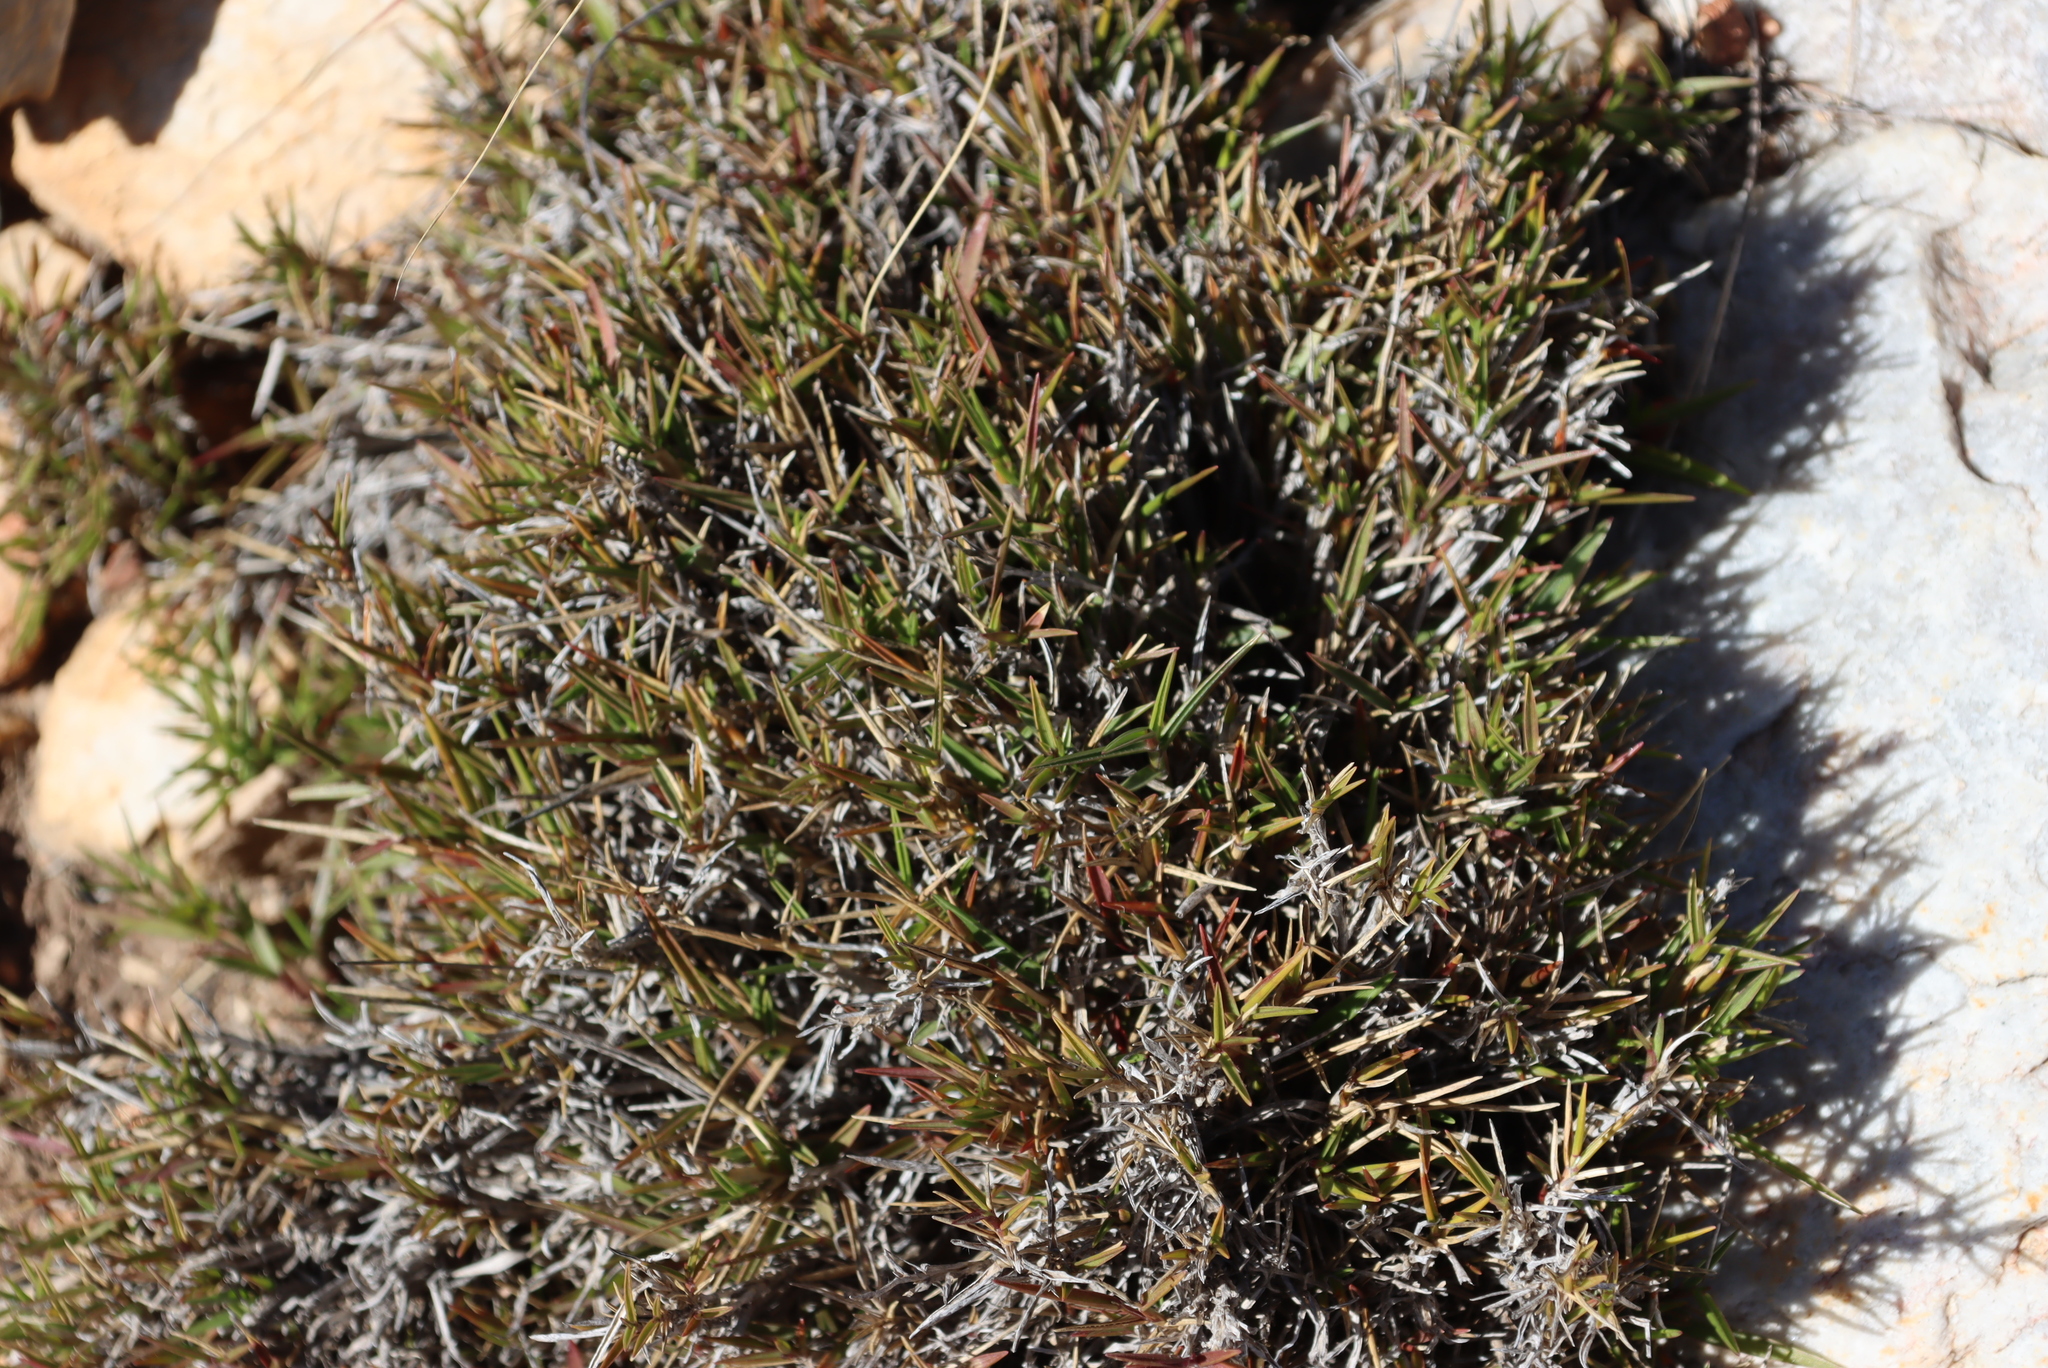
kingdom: Plantae
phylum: Tracheophyta
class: Liliopsida
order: Poales
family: Poaceae
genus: Urochloa
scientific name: Urochloa serrata
